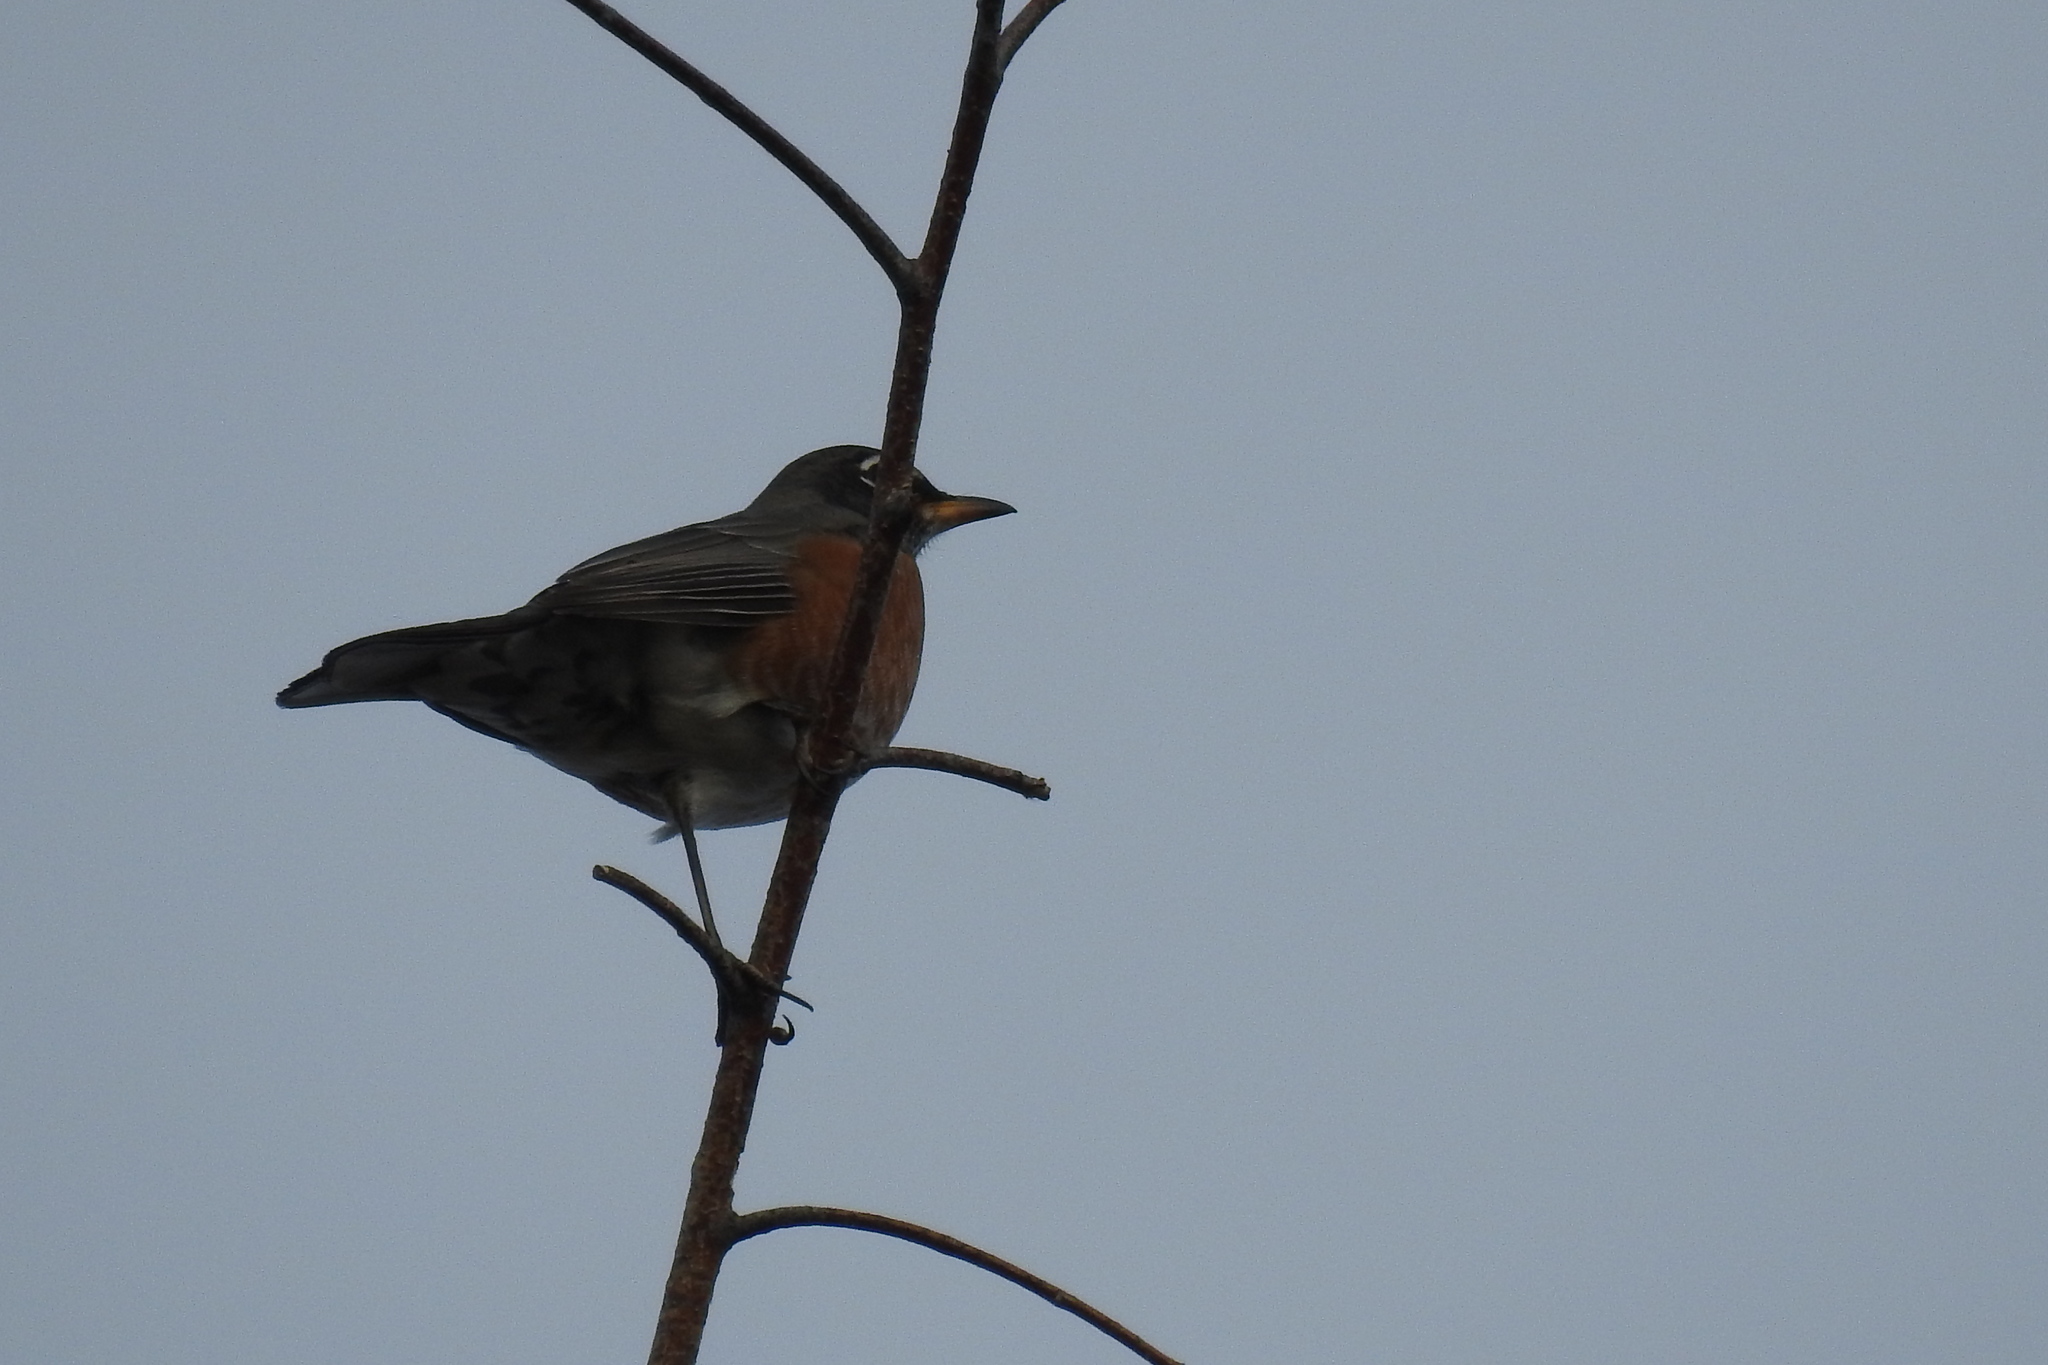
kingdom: Animalia
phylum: Chordata
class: Aves
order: Passeriformes
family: Turdidae
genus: Turdus
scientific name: Turdus migratorius
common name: American robin
